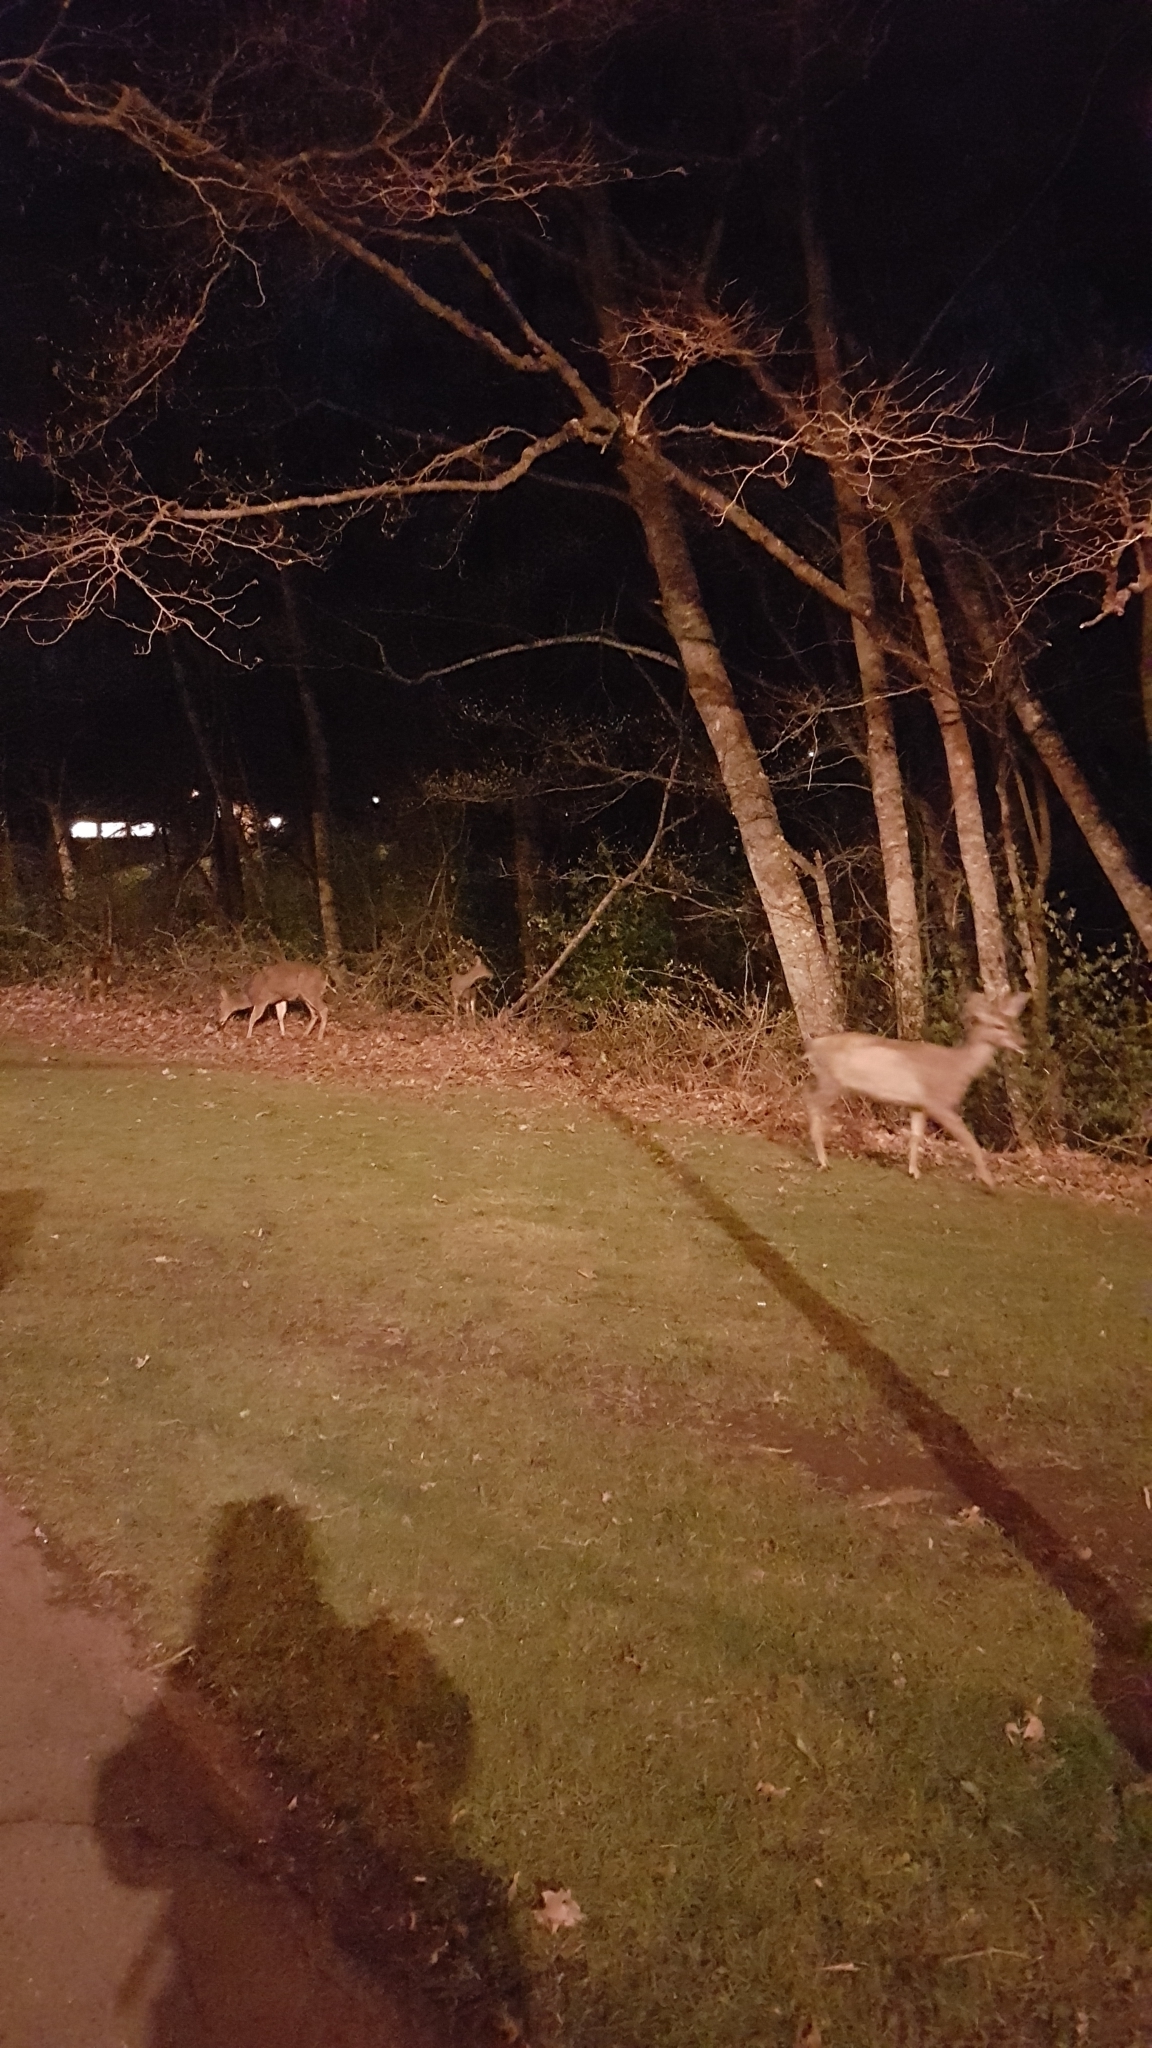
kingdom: Animalia
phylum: Chordata
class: Mammalia
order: Artiodactyla
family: Cervidae
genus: Odocoileus
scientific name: Odocoileus hemionus
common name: Mule deer
